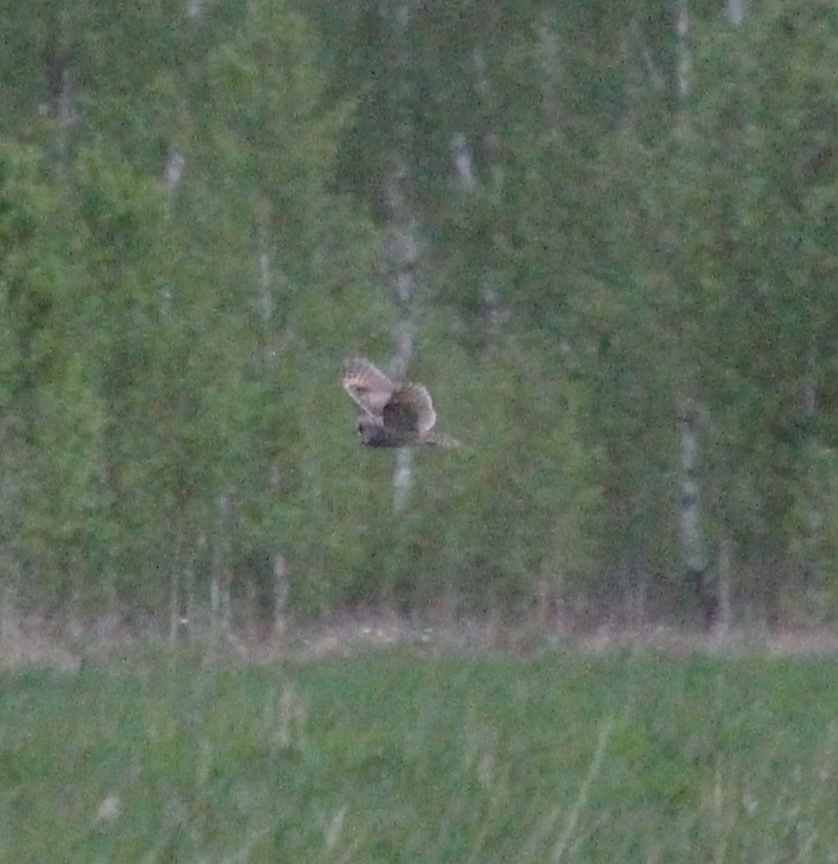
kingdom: Animalia
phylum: Chordata
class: Aves
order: Strigiformes
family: Strigidae
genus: Asio
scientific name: Asio otus
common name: Long-eared owl
